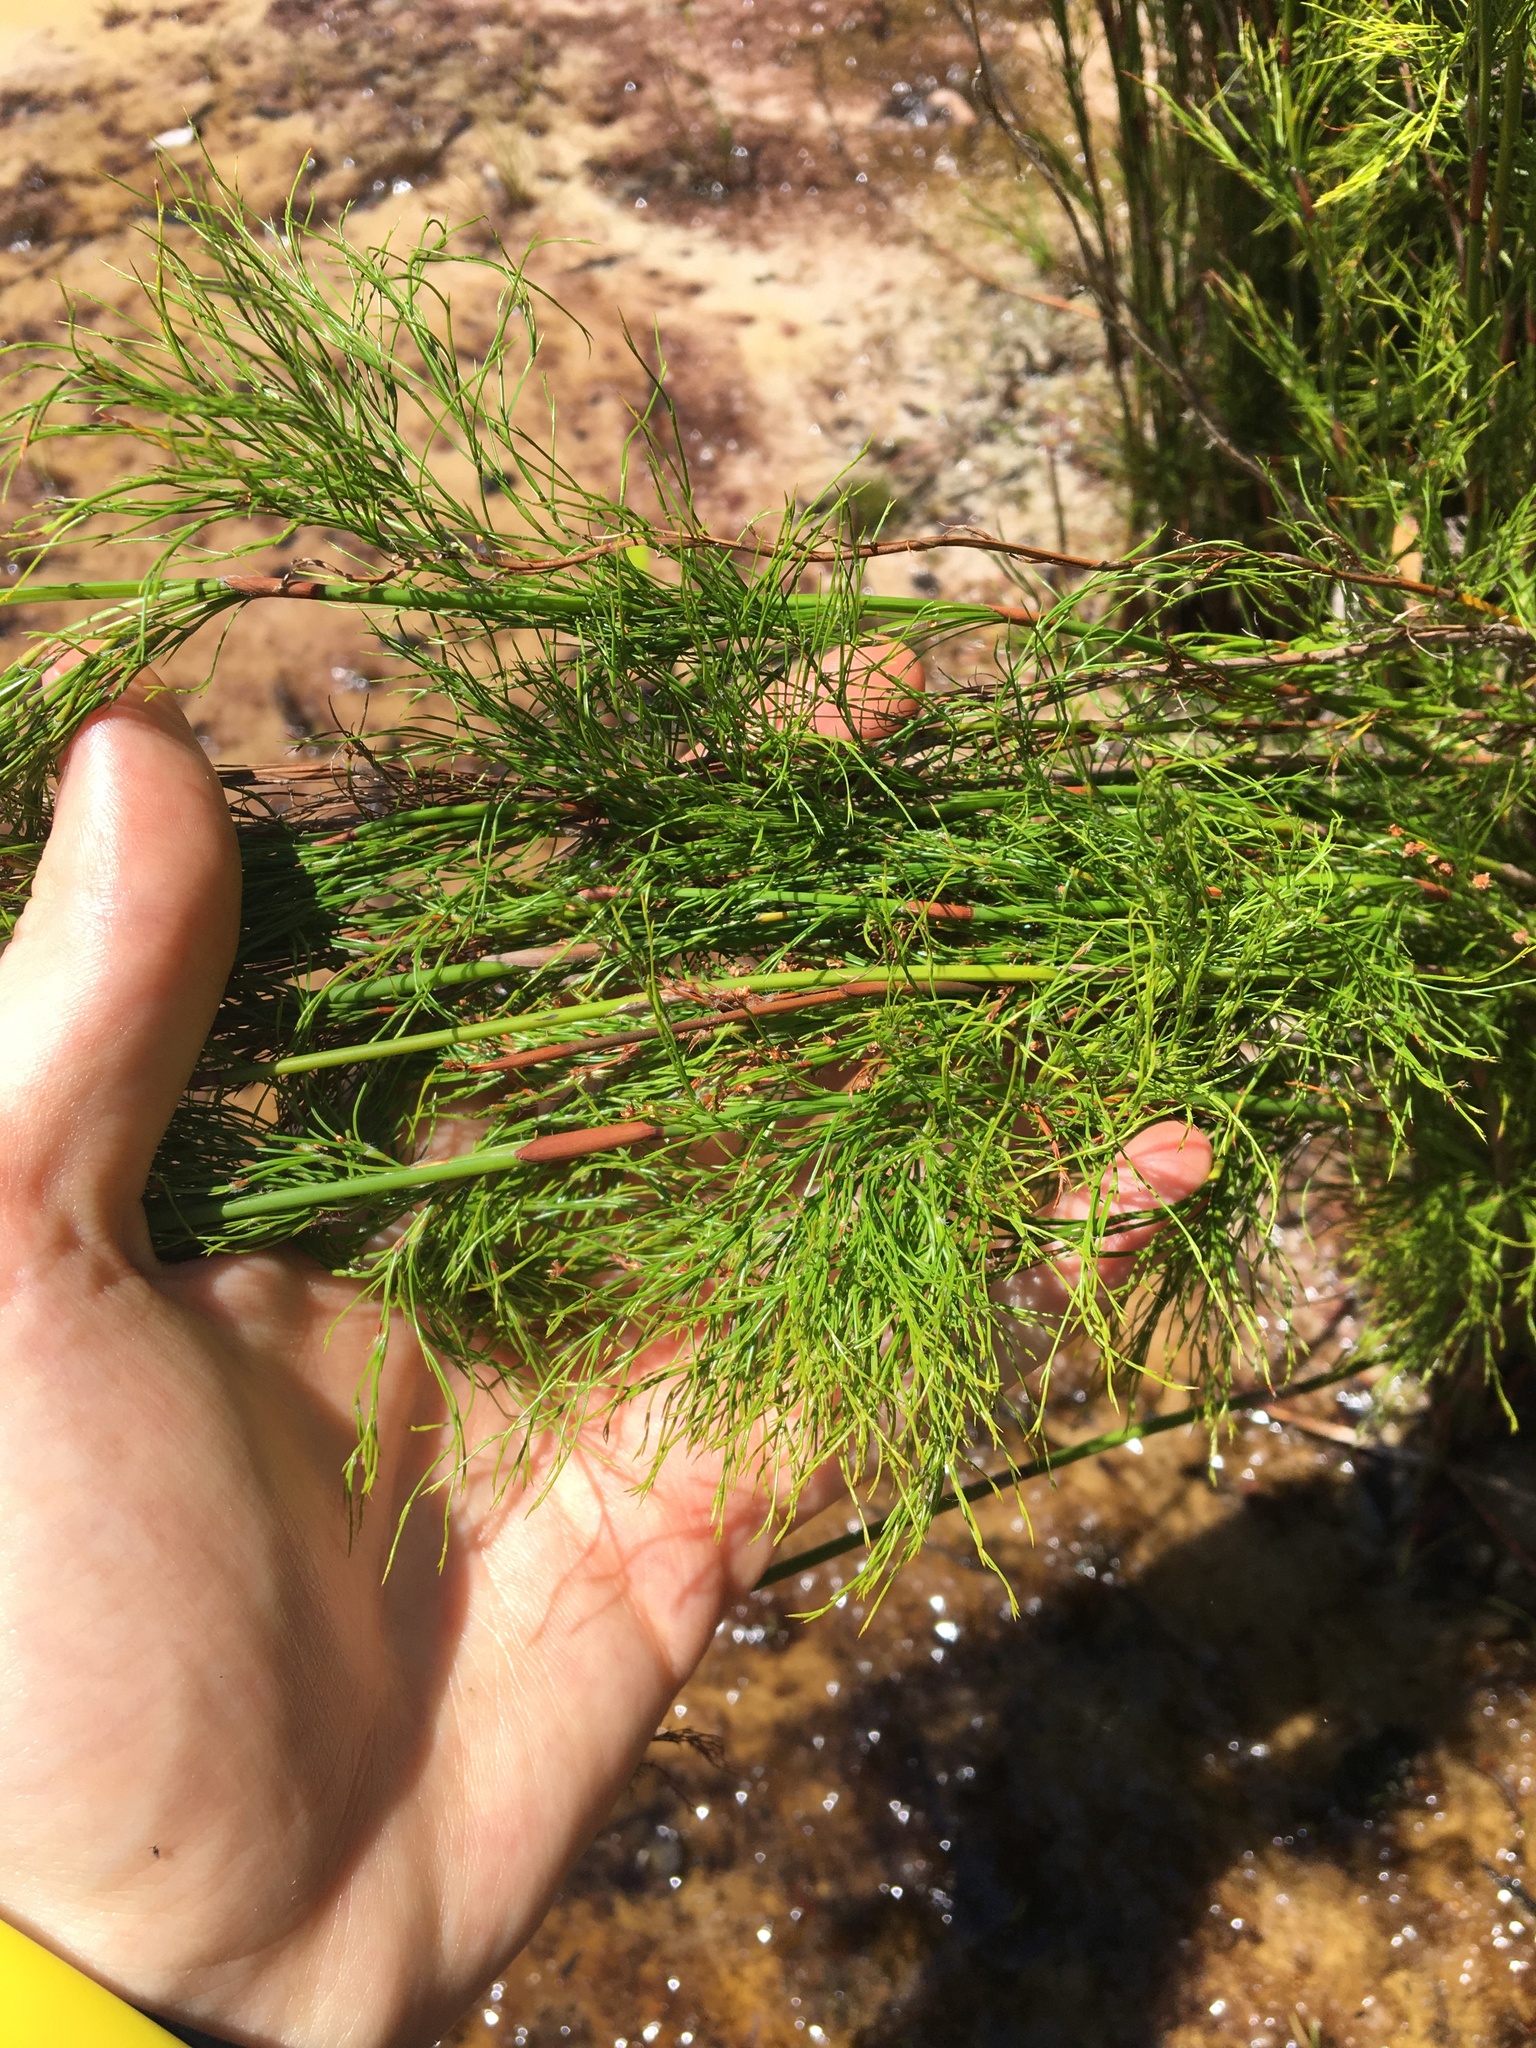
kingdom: Plantae
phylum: Tracheophyta
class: Liliopsida
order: Poales
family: Restionaceae
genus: Baloskion
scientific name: Baloskion tetraphyllum
